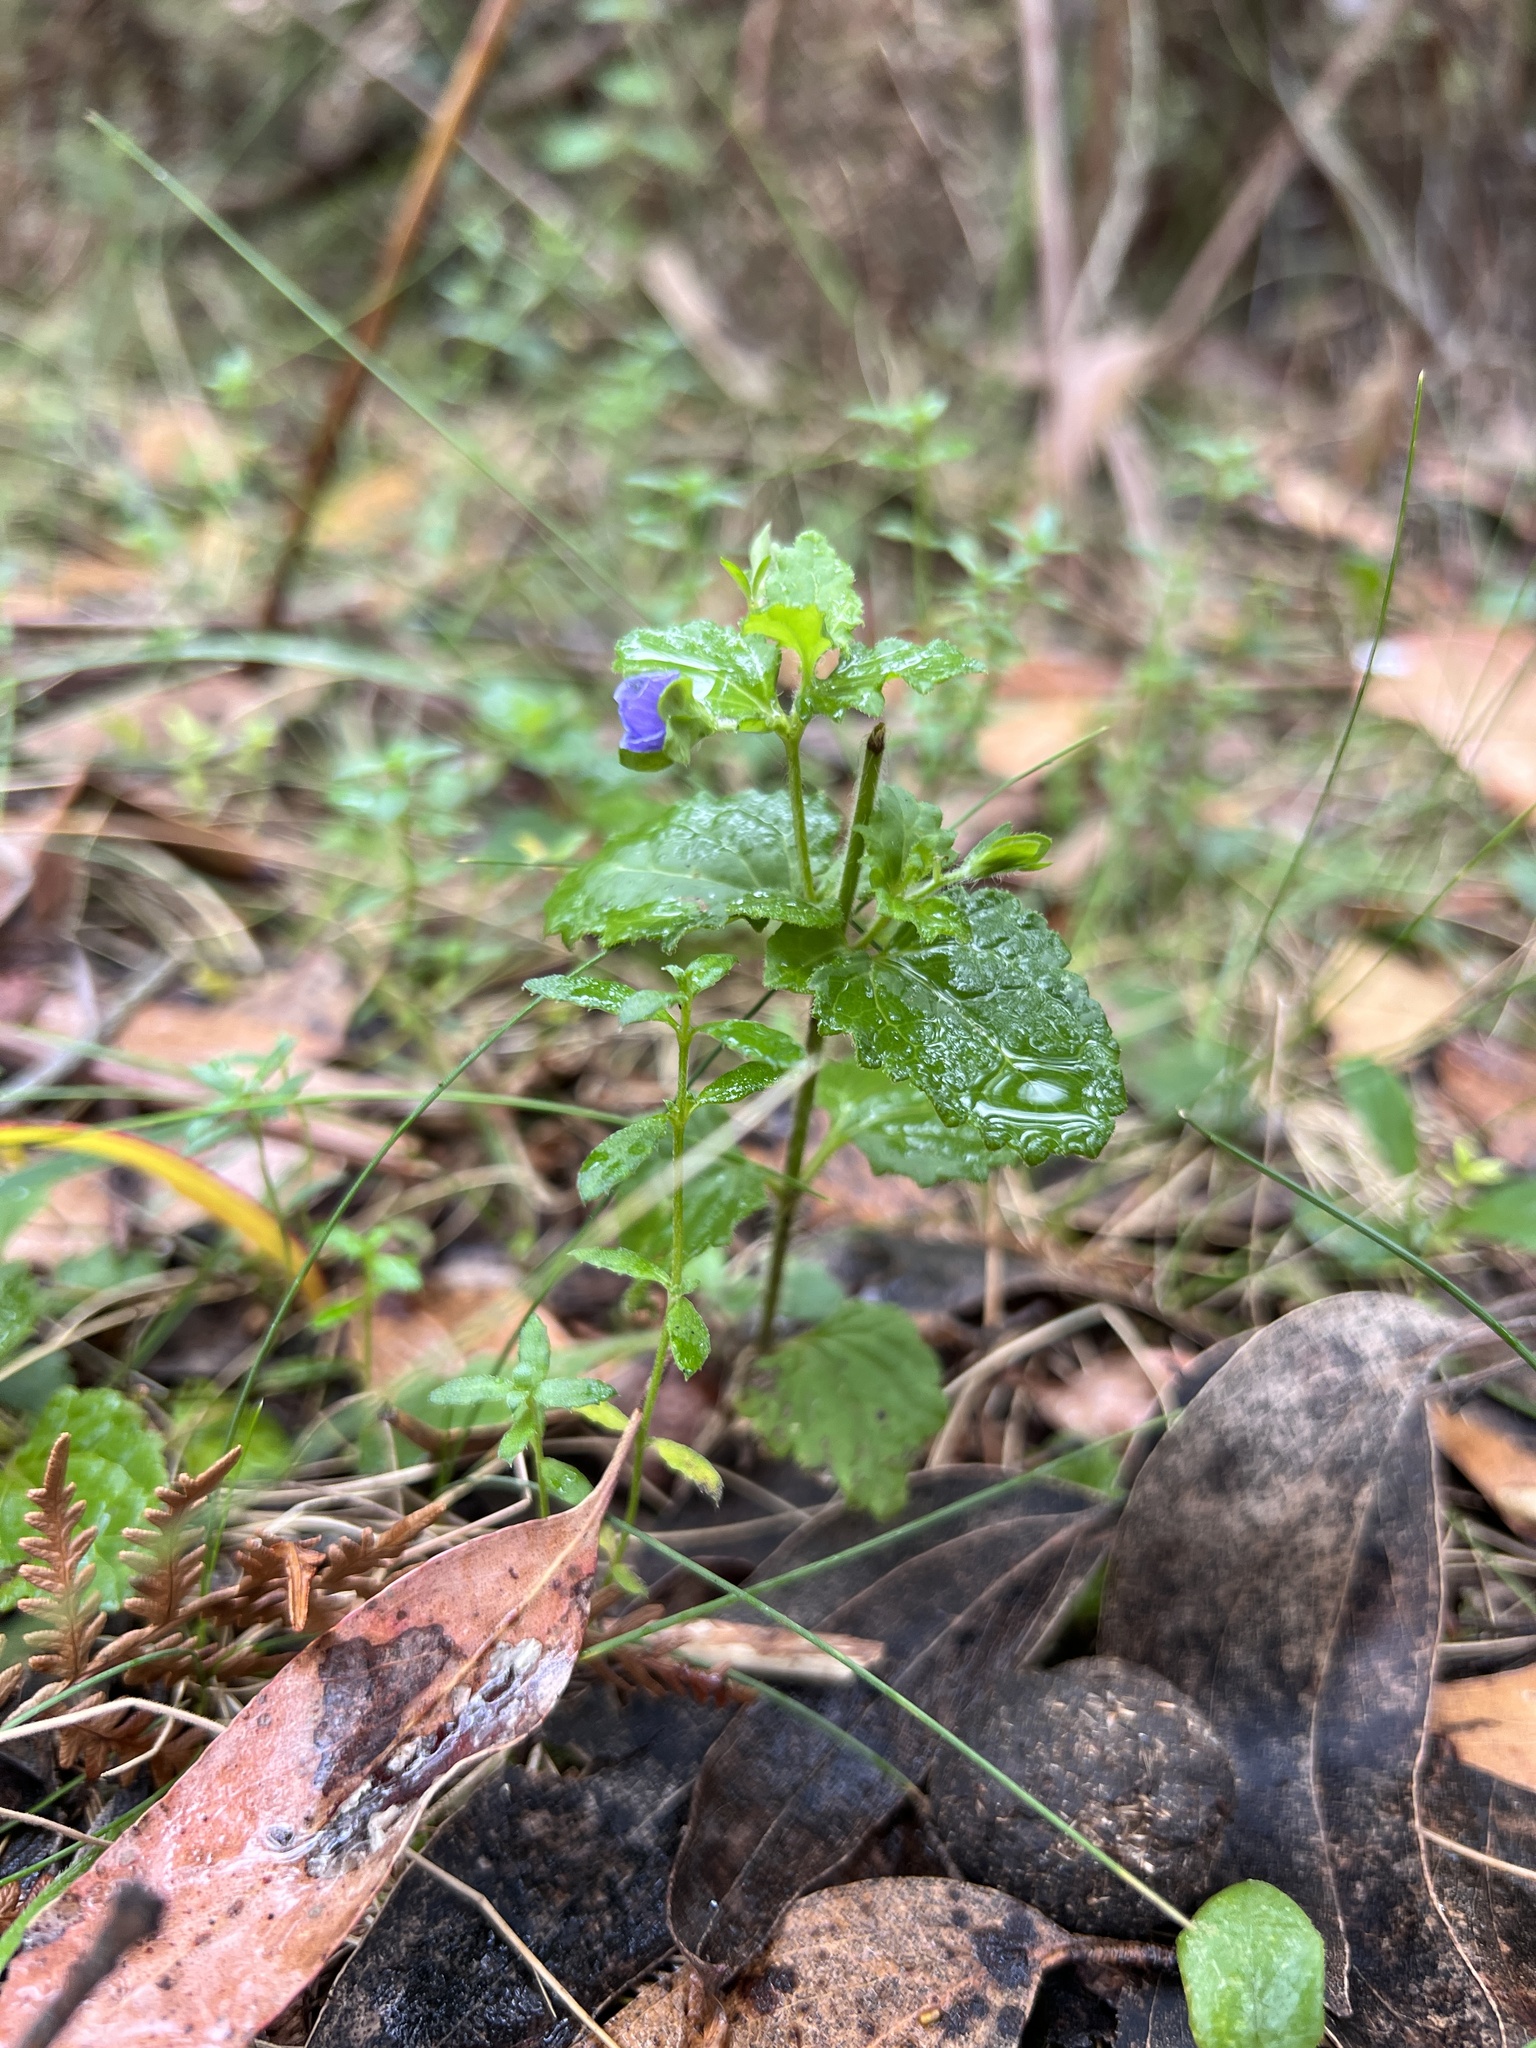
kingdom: Plantae
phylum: Tracheophyta
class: Magnoliopsida
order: Lamiales
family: Plantaginaceae
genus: Veronica
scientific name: Veronica calycina
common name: Cup speedwell
